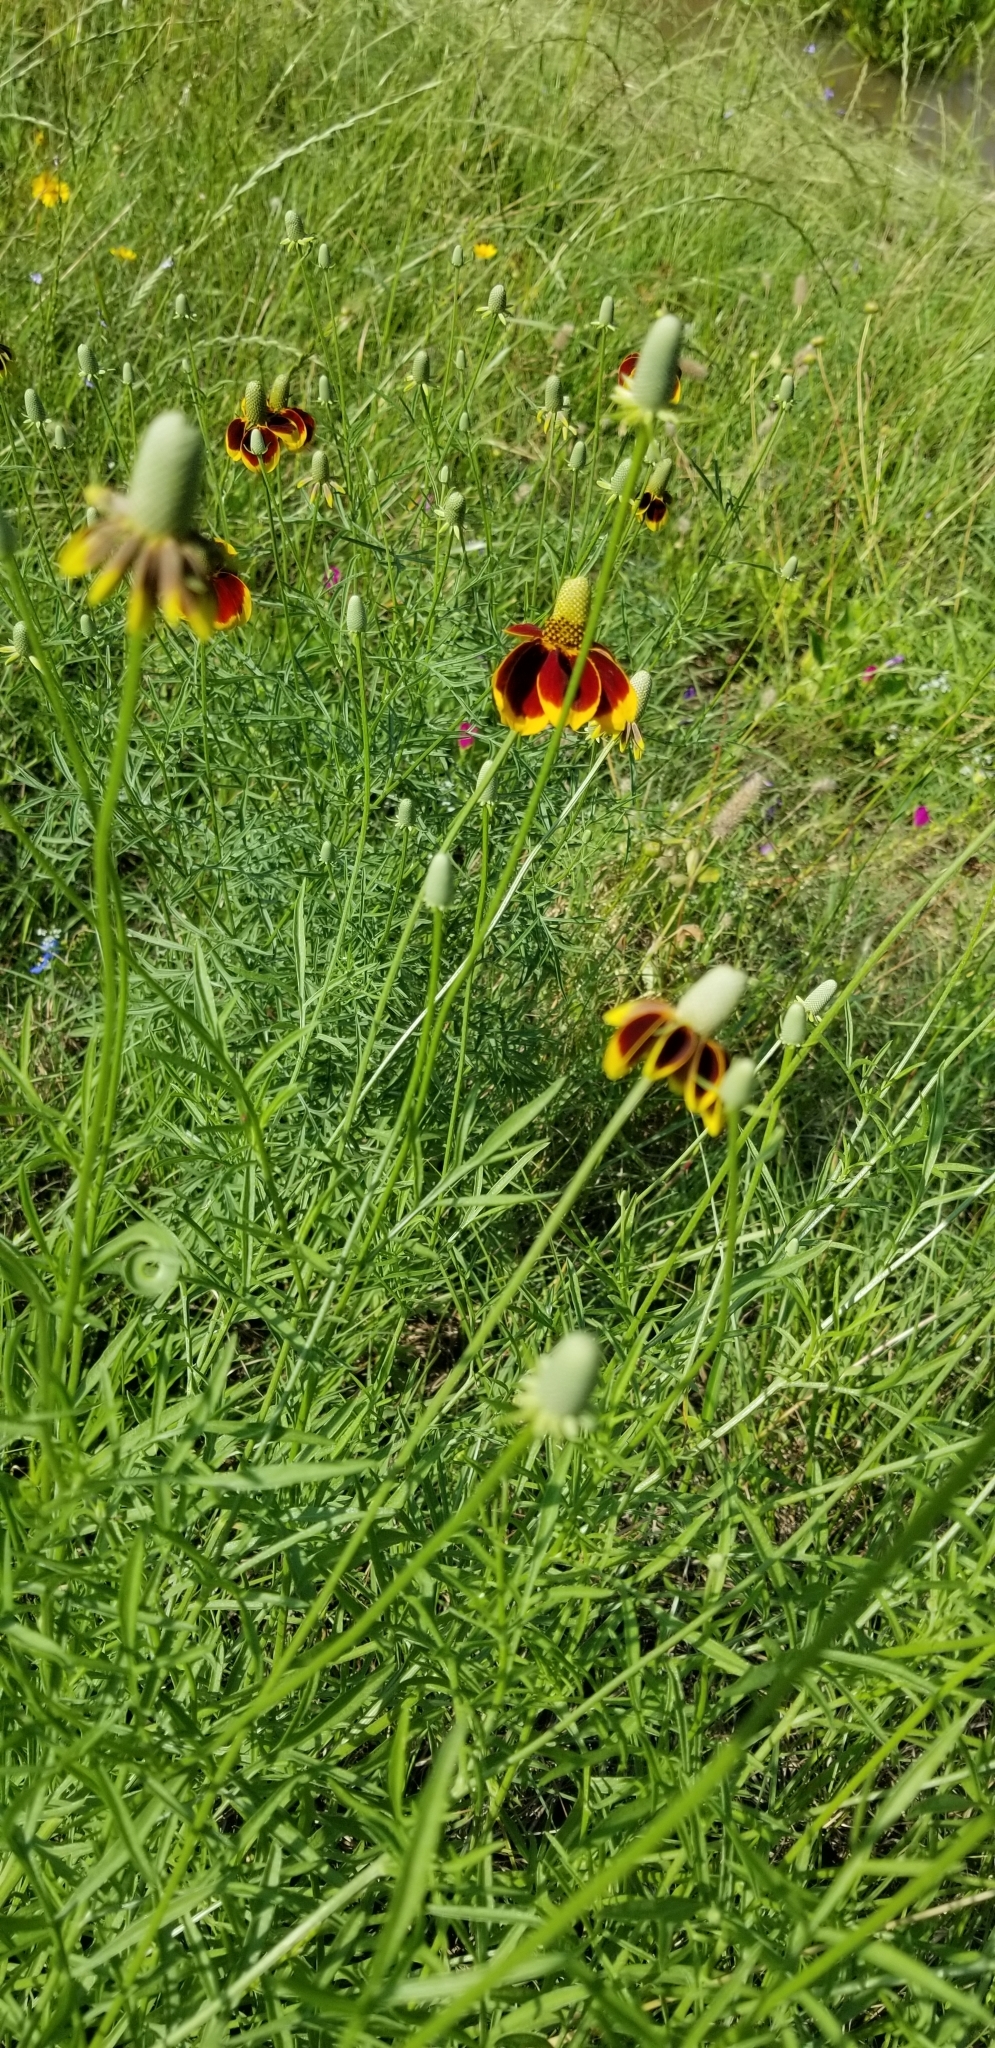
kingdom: Plantae
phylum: Tracheophyta
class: Magnoliopsida
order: Asterales
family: Asteraceae
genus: Ratibida
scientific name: Ratibida columnifera
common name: Prairie coneflower
